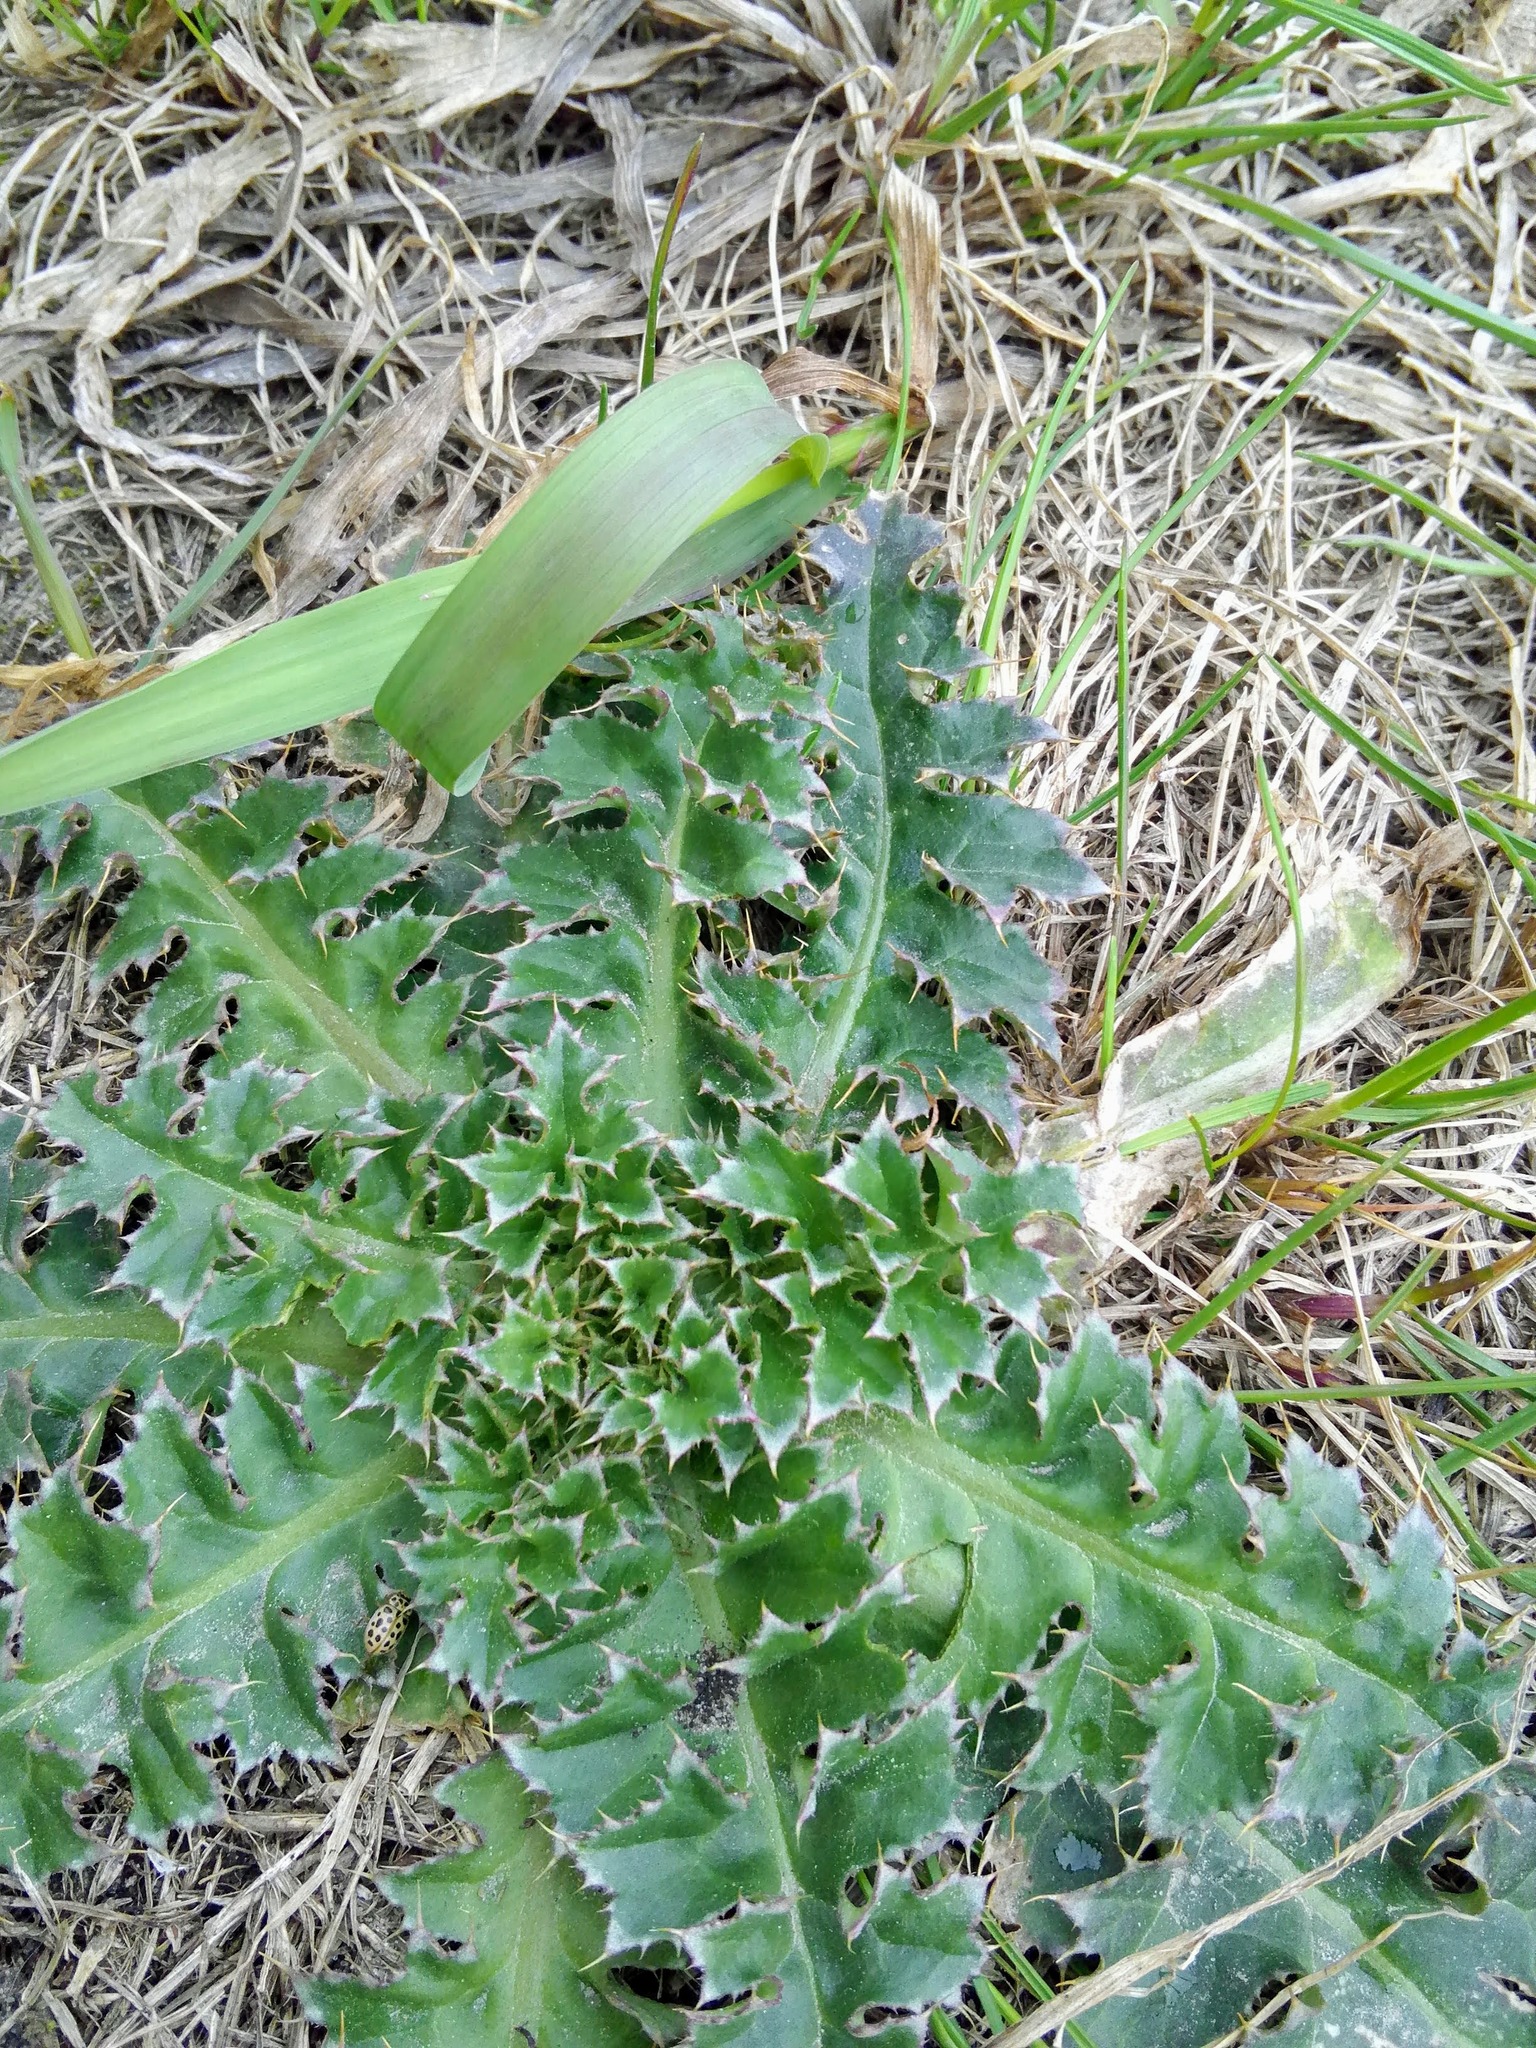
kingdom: Plantae
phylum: Tracheophyta
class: Magnoliopsida
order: Asterales
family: Asteraceae
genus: Carduus
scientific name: Carduus nutans
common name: Musk thistle
